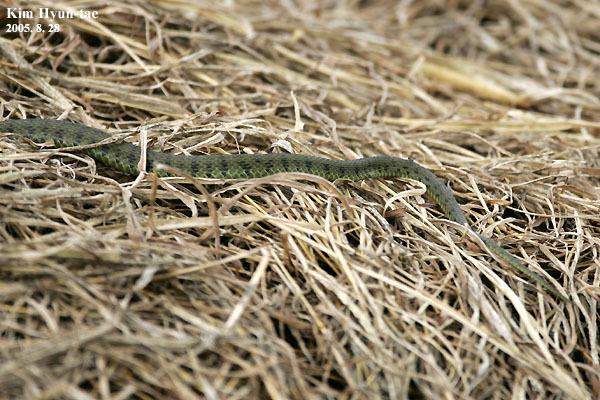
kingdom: Animalia
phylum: Chordata
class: Squamata
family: Colubridae
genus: Rhabdophis
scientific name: Rhabdophis tigrinus
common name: Tiger keelback
